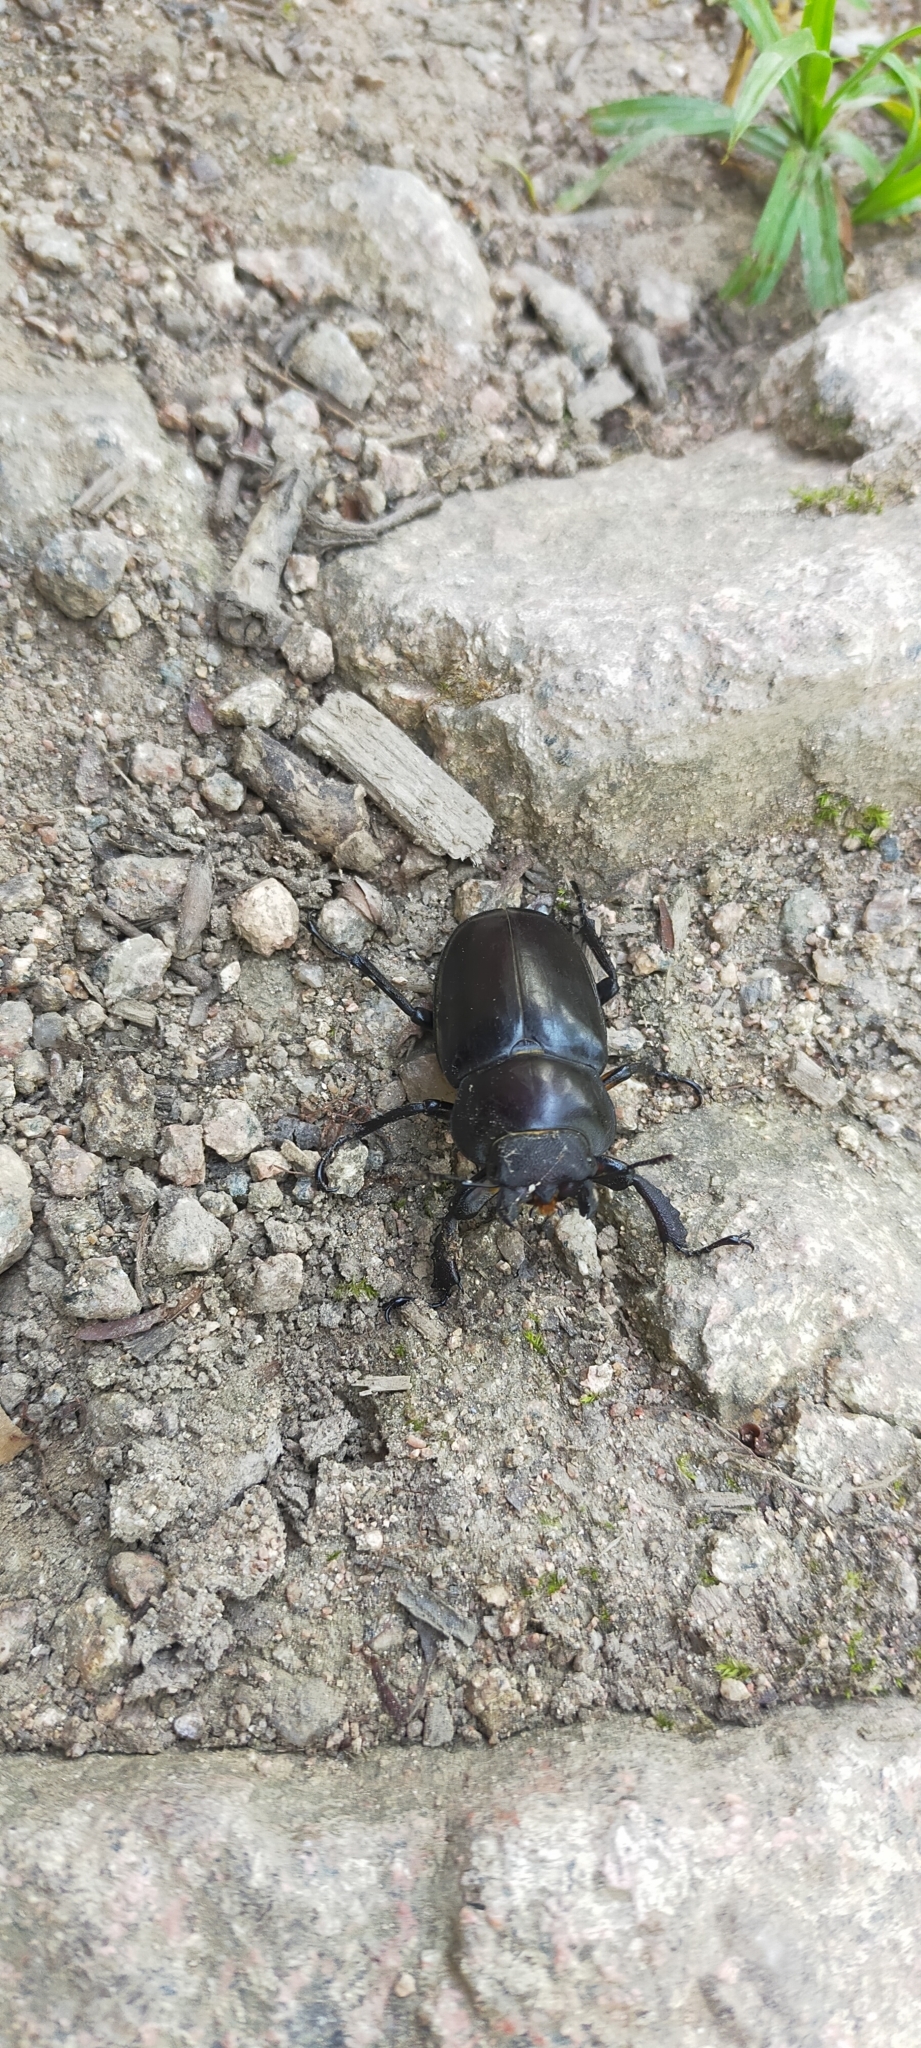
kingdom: Animalia
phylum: Arthropoda
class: Insecta
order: Coleoptera
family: Lucanidae
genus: Lucanus
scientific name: Lucanus maculifemoratus
